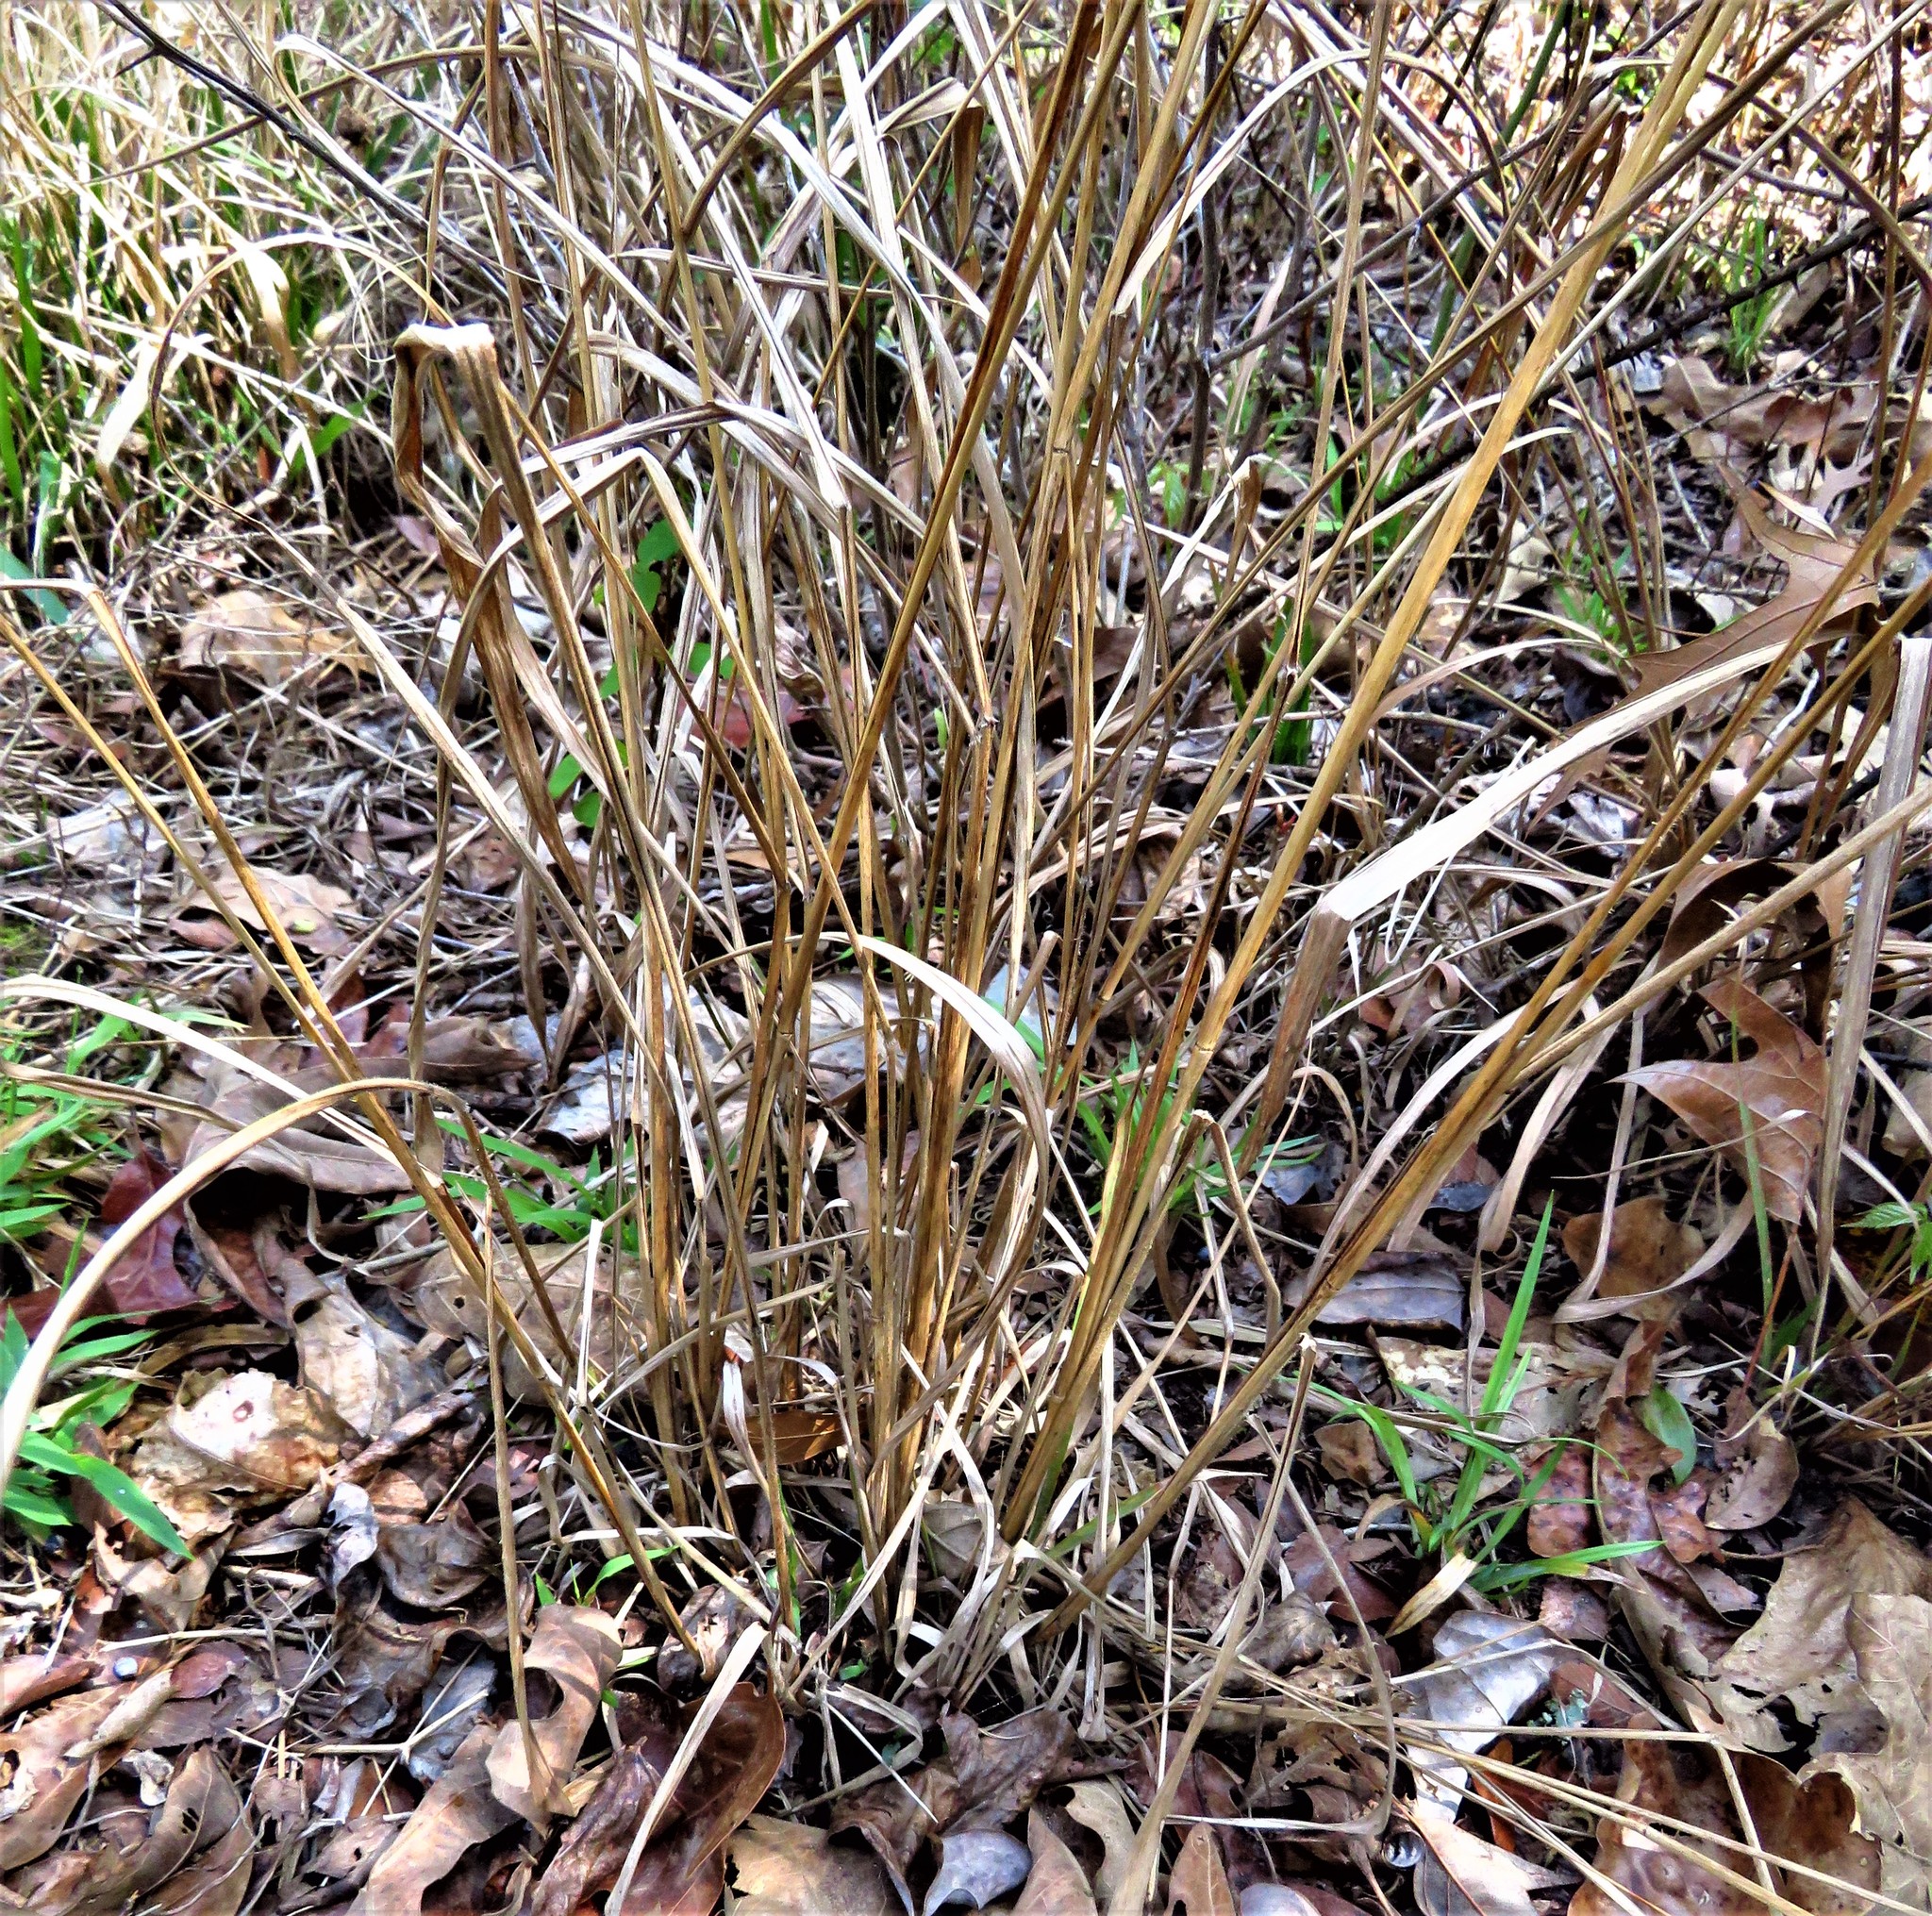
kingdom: Plantae
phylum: Tracheophyta
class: Liliopsida
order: Poales
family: Poaceae
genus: Chasmanthium
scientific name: Chasmanthium laxum
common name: Slender chasmanthium
